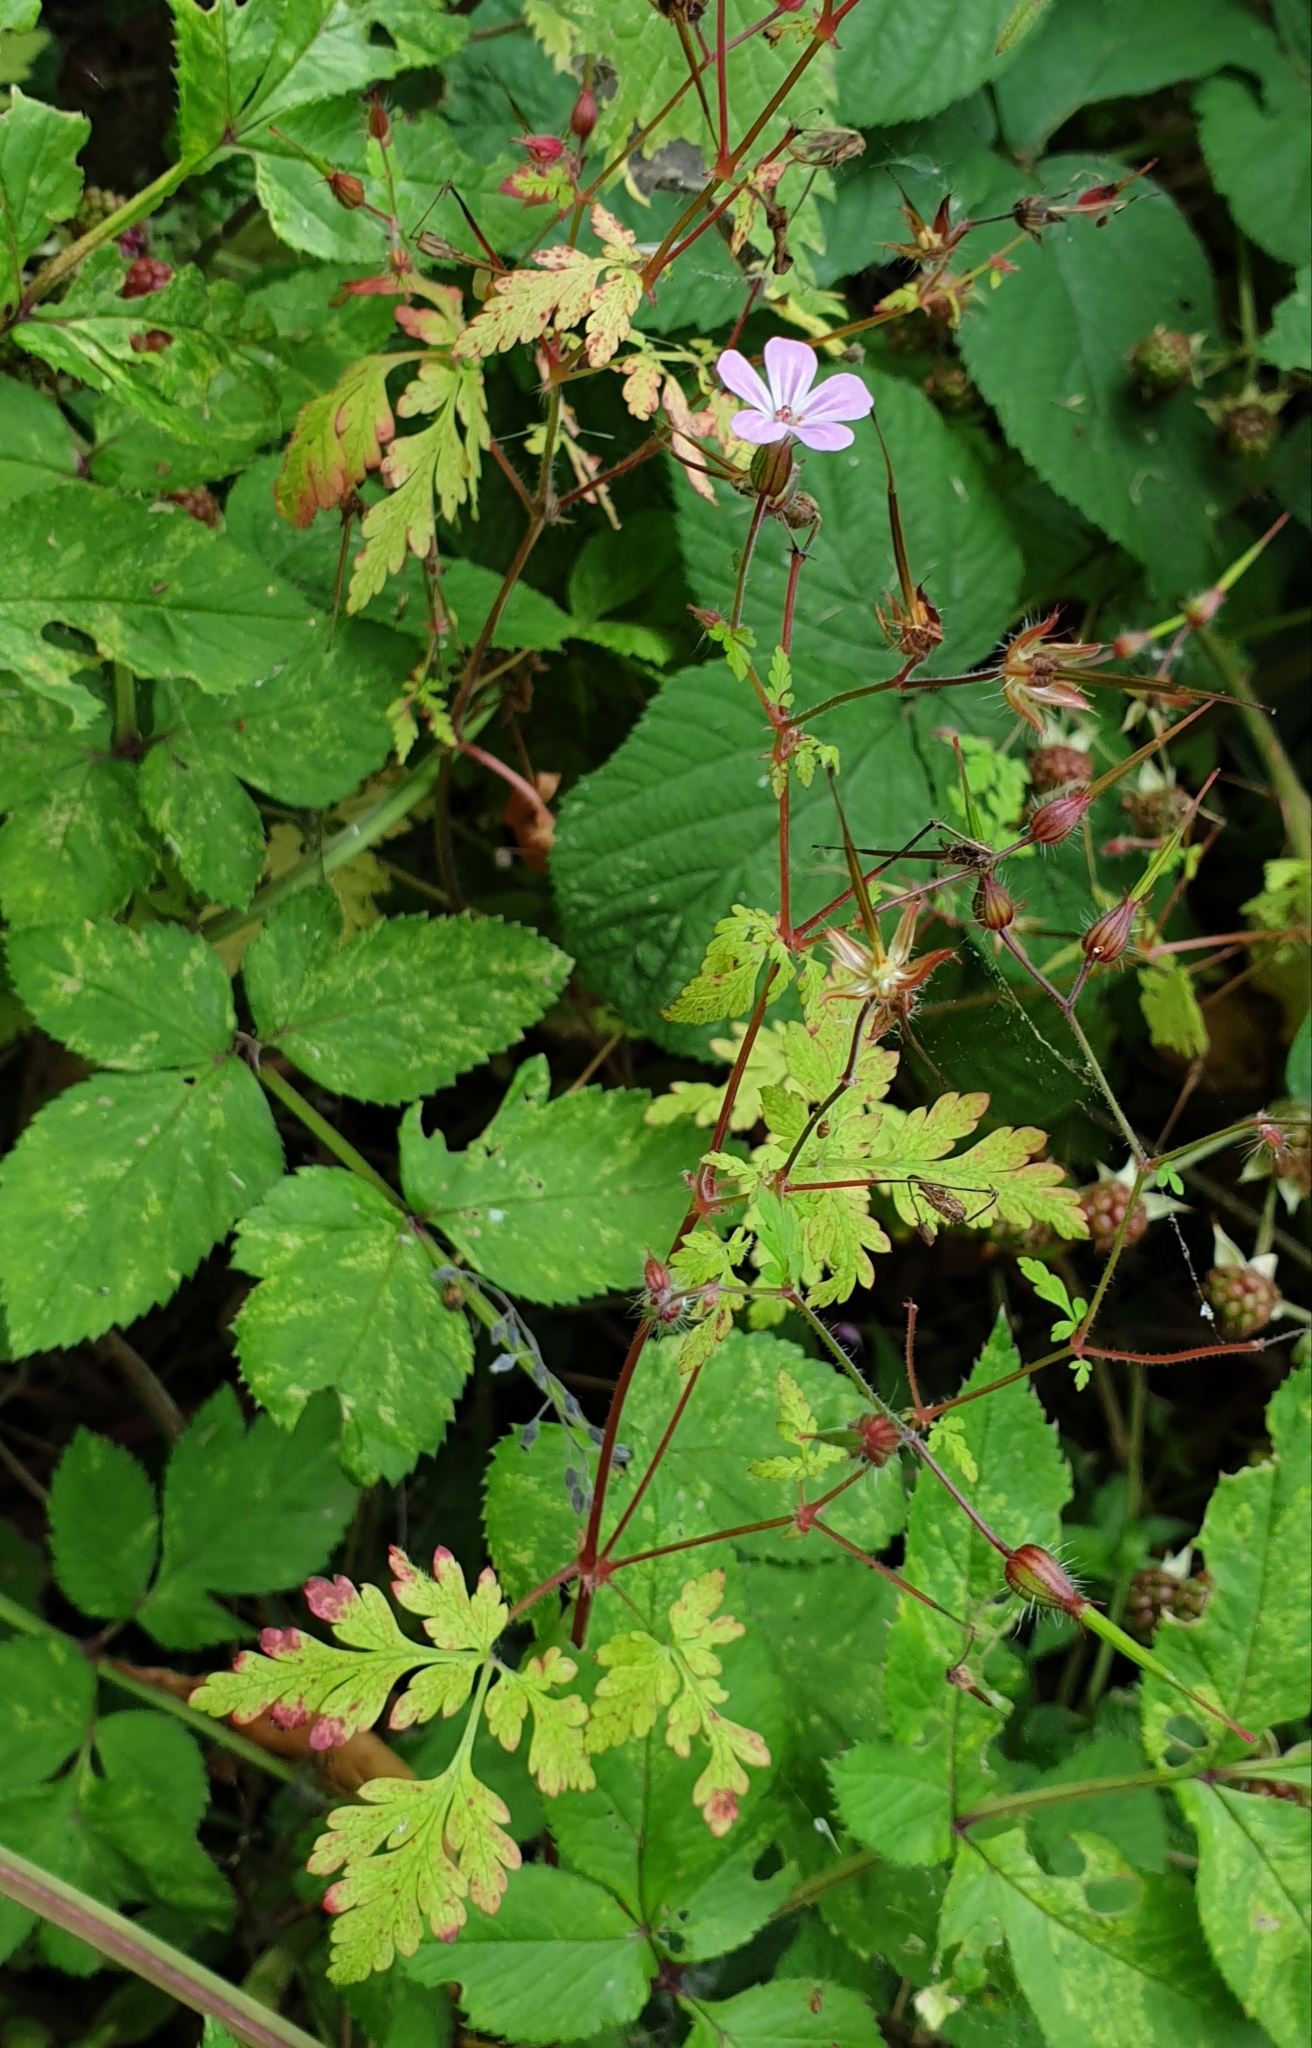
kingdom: Plantae
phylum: Tracheophyta
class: Magnoliopsida
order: Geraniales
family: Geraniaceae
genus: Geranium
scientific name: Geranium robertianum
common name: Herb-robert
